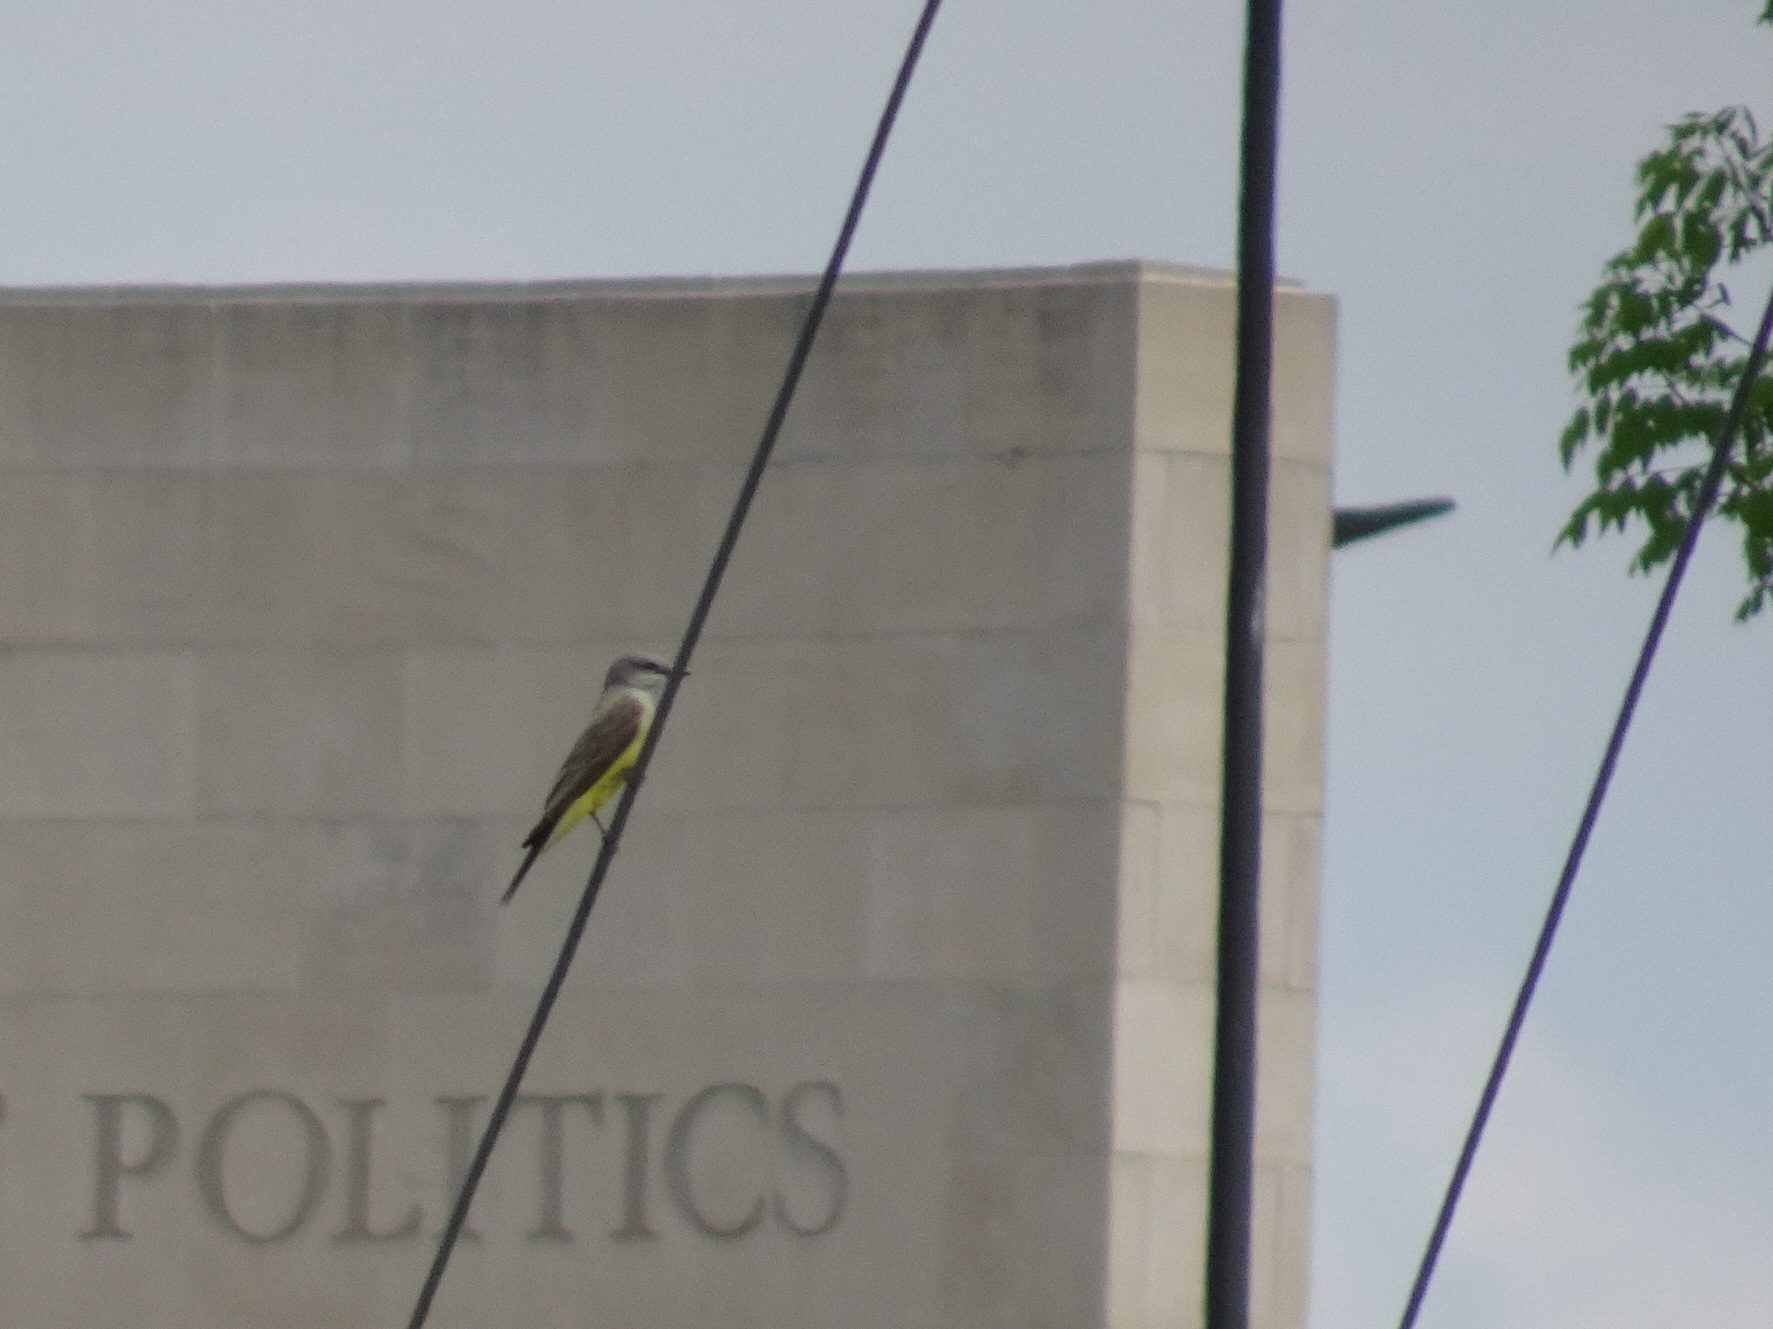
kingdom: Animalia
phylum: Chordata
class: Aves
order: Passeriformes
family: Tyrannidae
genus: Tyrannus
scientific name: Tyrannus verticalis
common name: Western kingbird
